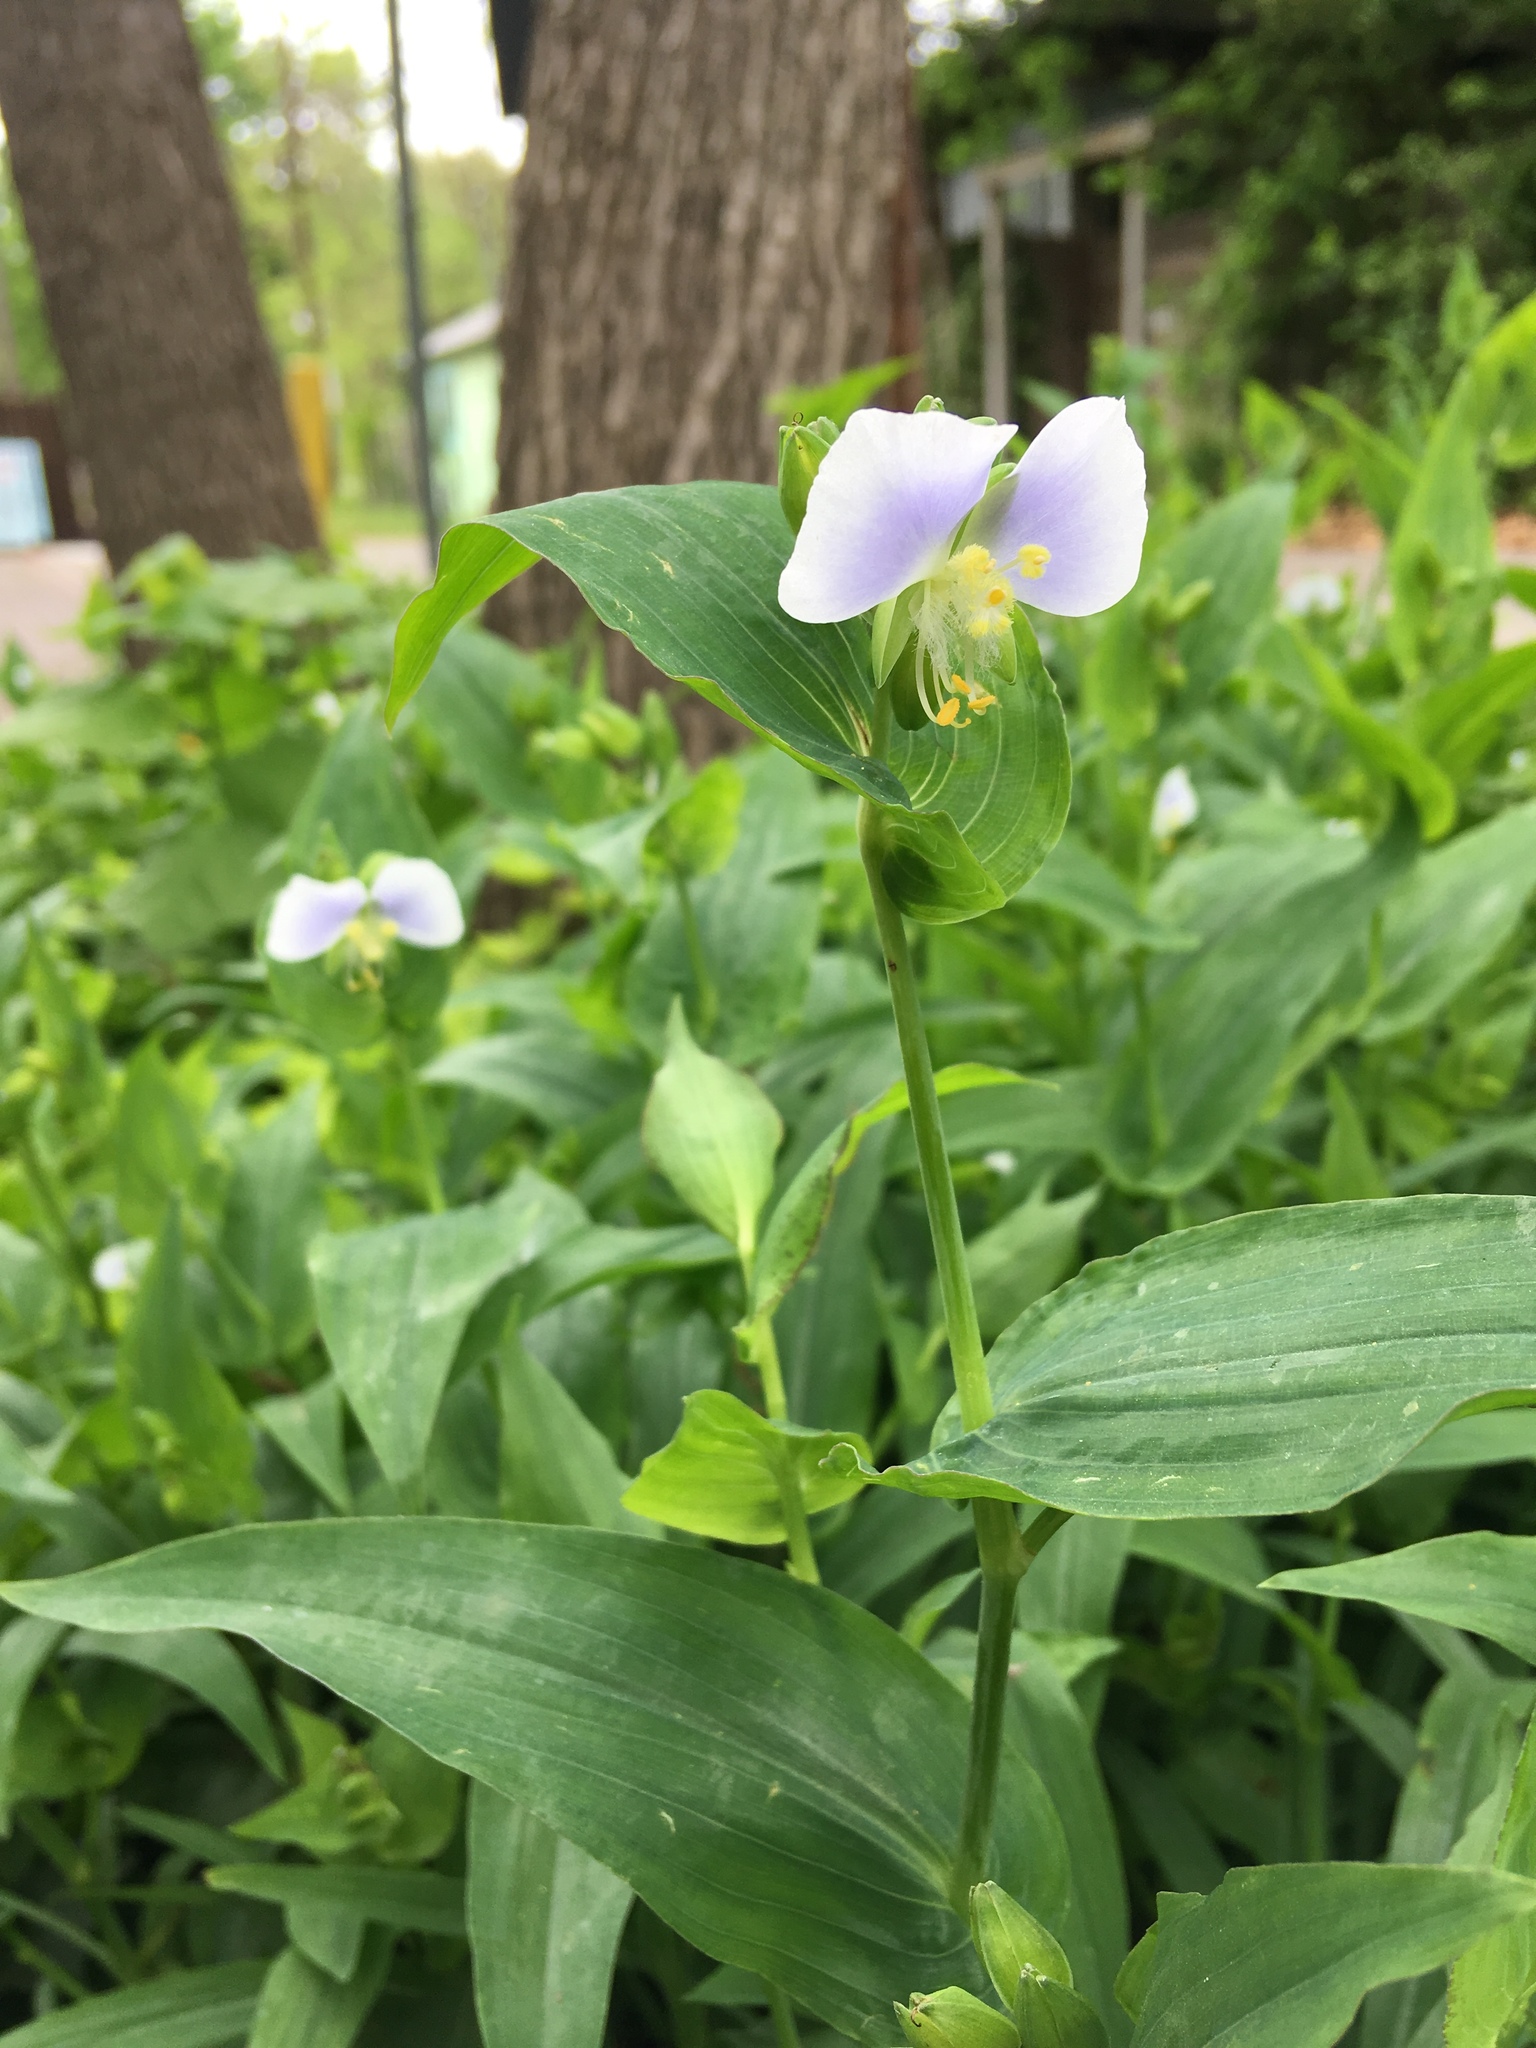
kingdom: Plantae
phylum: Tracheophyta
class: Liliopsida
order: Commelinales
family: Commelinaceae
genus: Tinantia
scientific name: Tinantia anomala
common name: False dayflower
